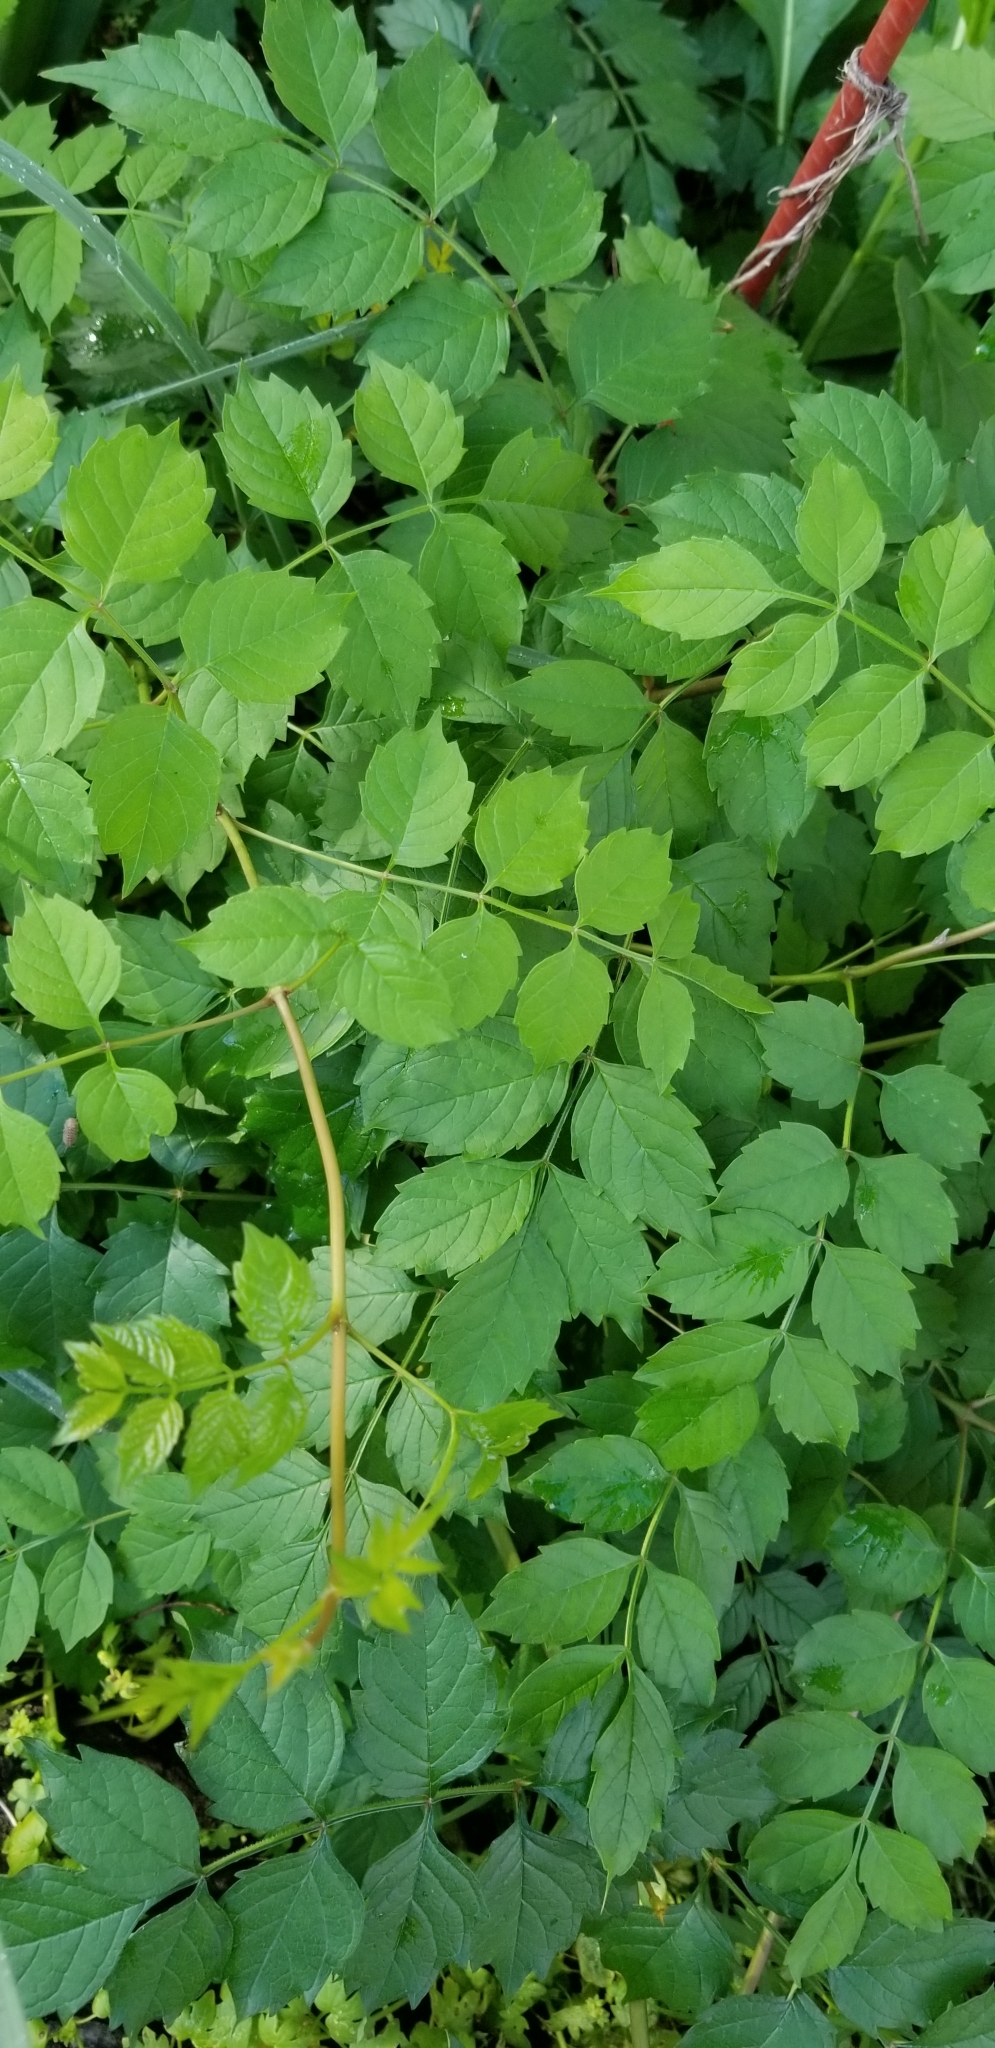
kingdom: Plantae
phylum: Tracheophyta
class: Magnoliopsida
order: Lamiales
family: Bignoniaceae
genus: Campsis
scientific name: Campsis radicans
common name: Trumpet-creeper
